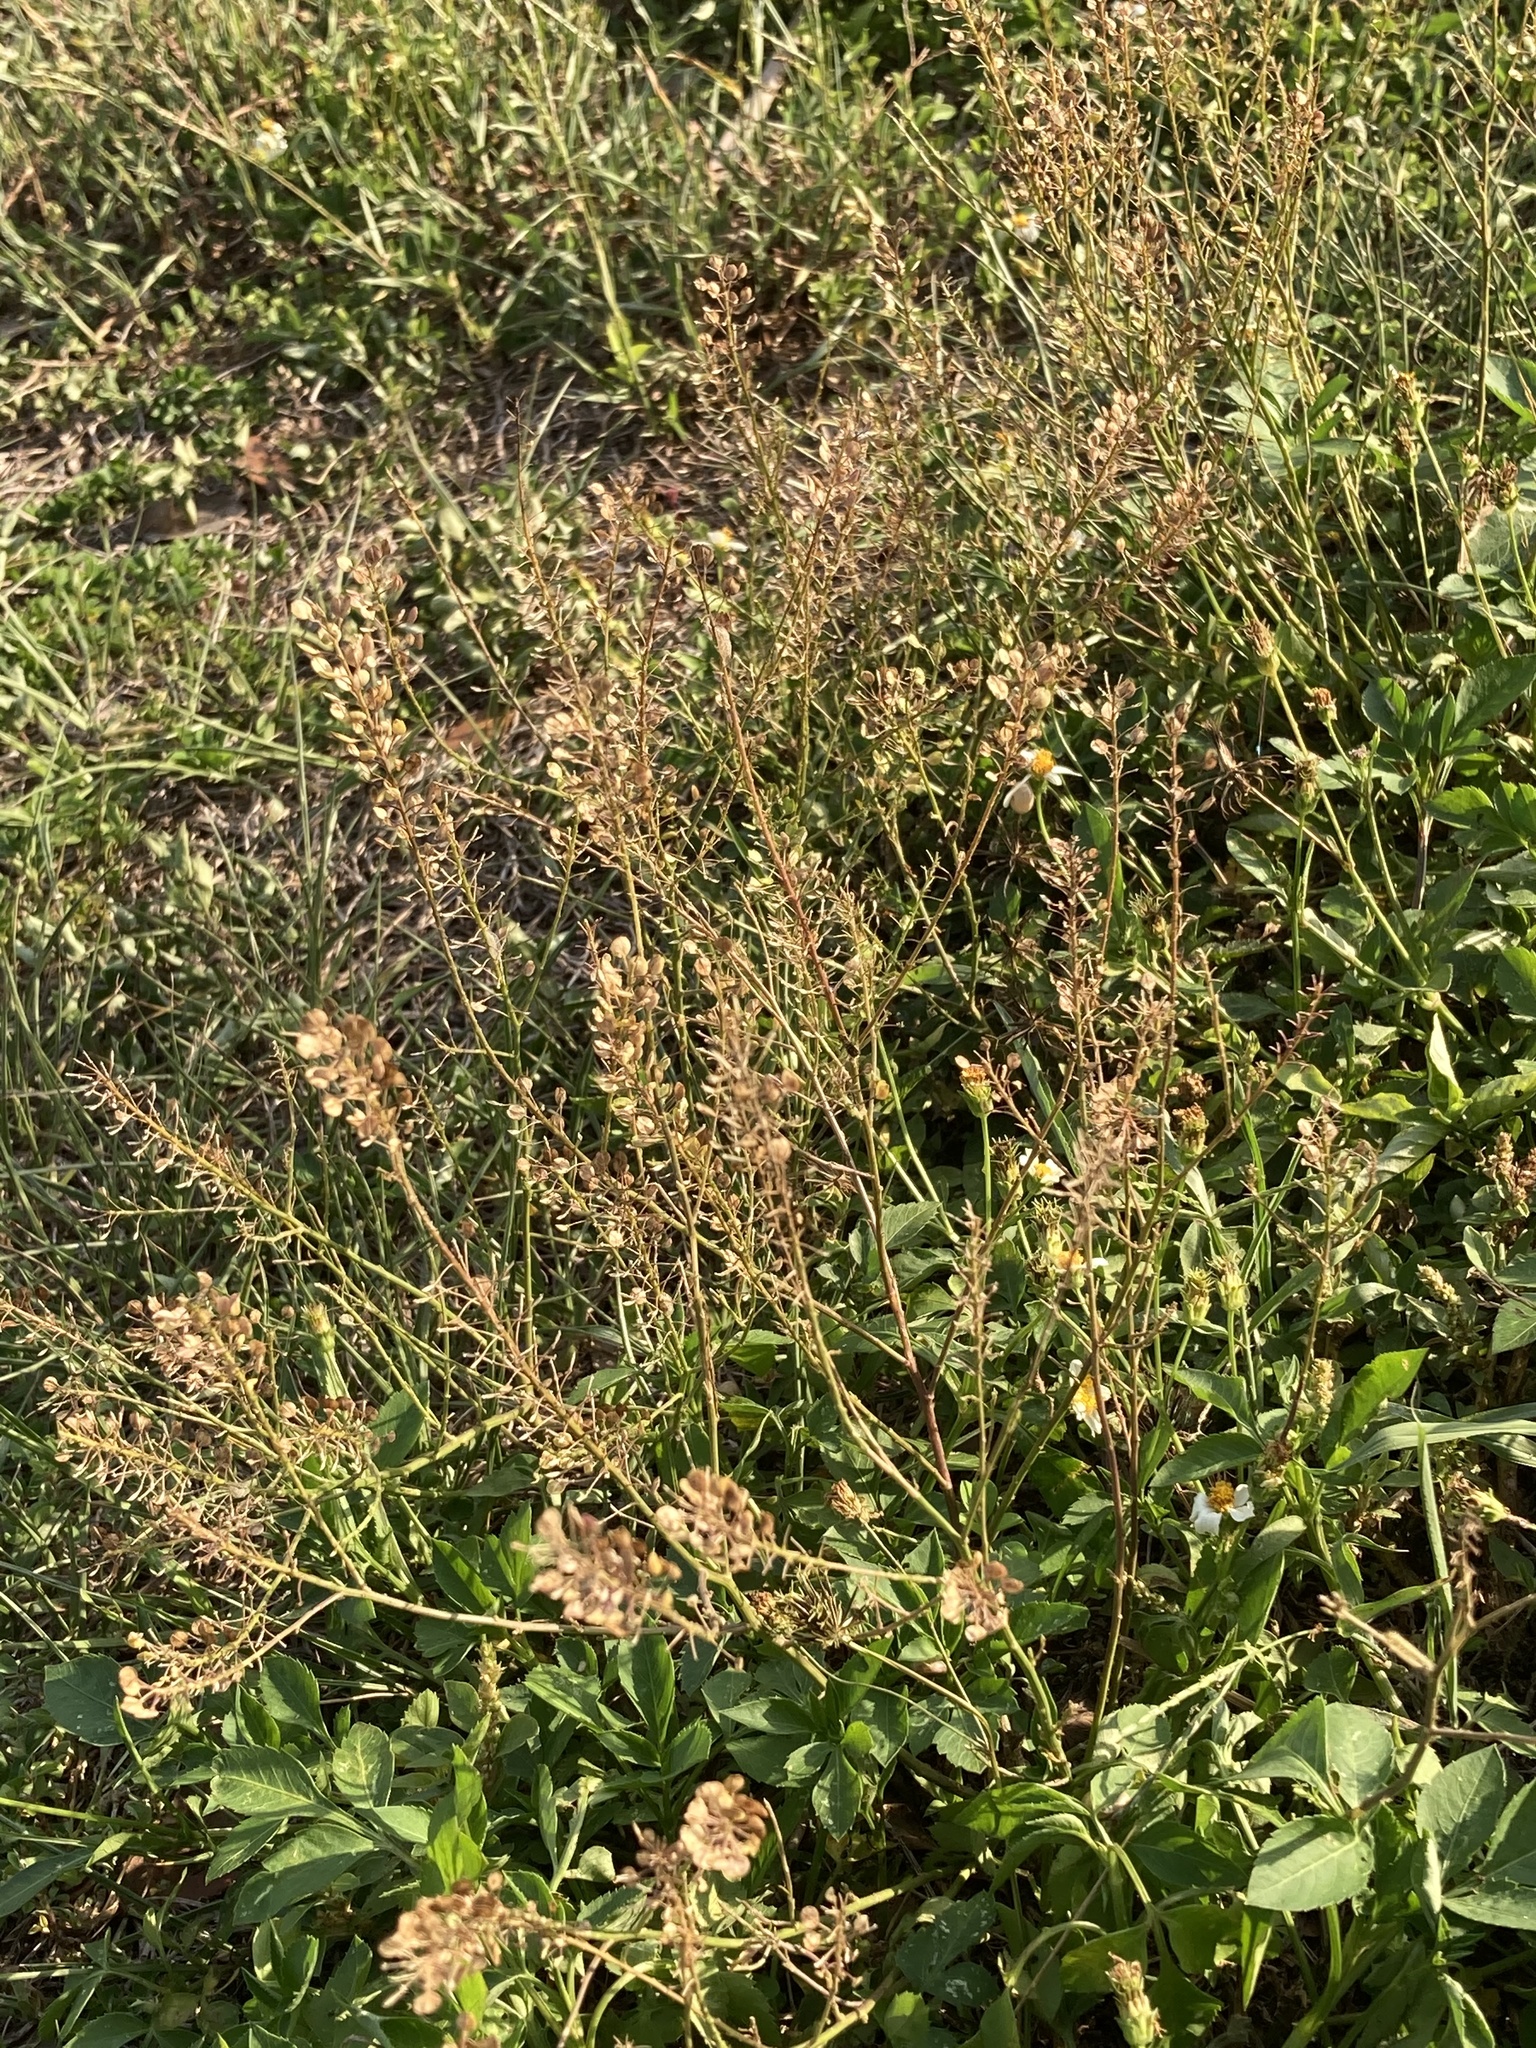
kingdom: Plantae
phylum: Tracheophyta
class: Magnoliopsida
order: Brassicales
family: Brassicaceae
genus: Lepidium
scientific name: Lepidium virginicum
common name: Least pepperwort
